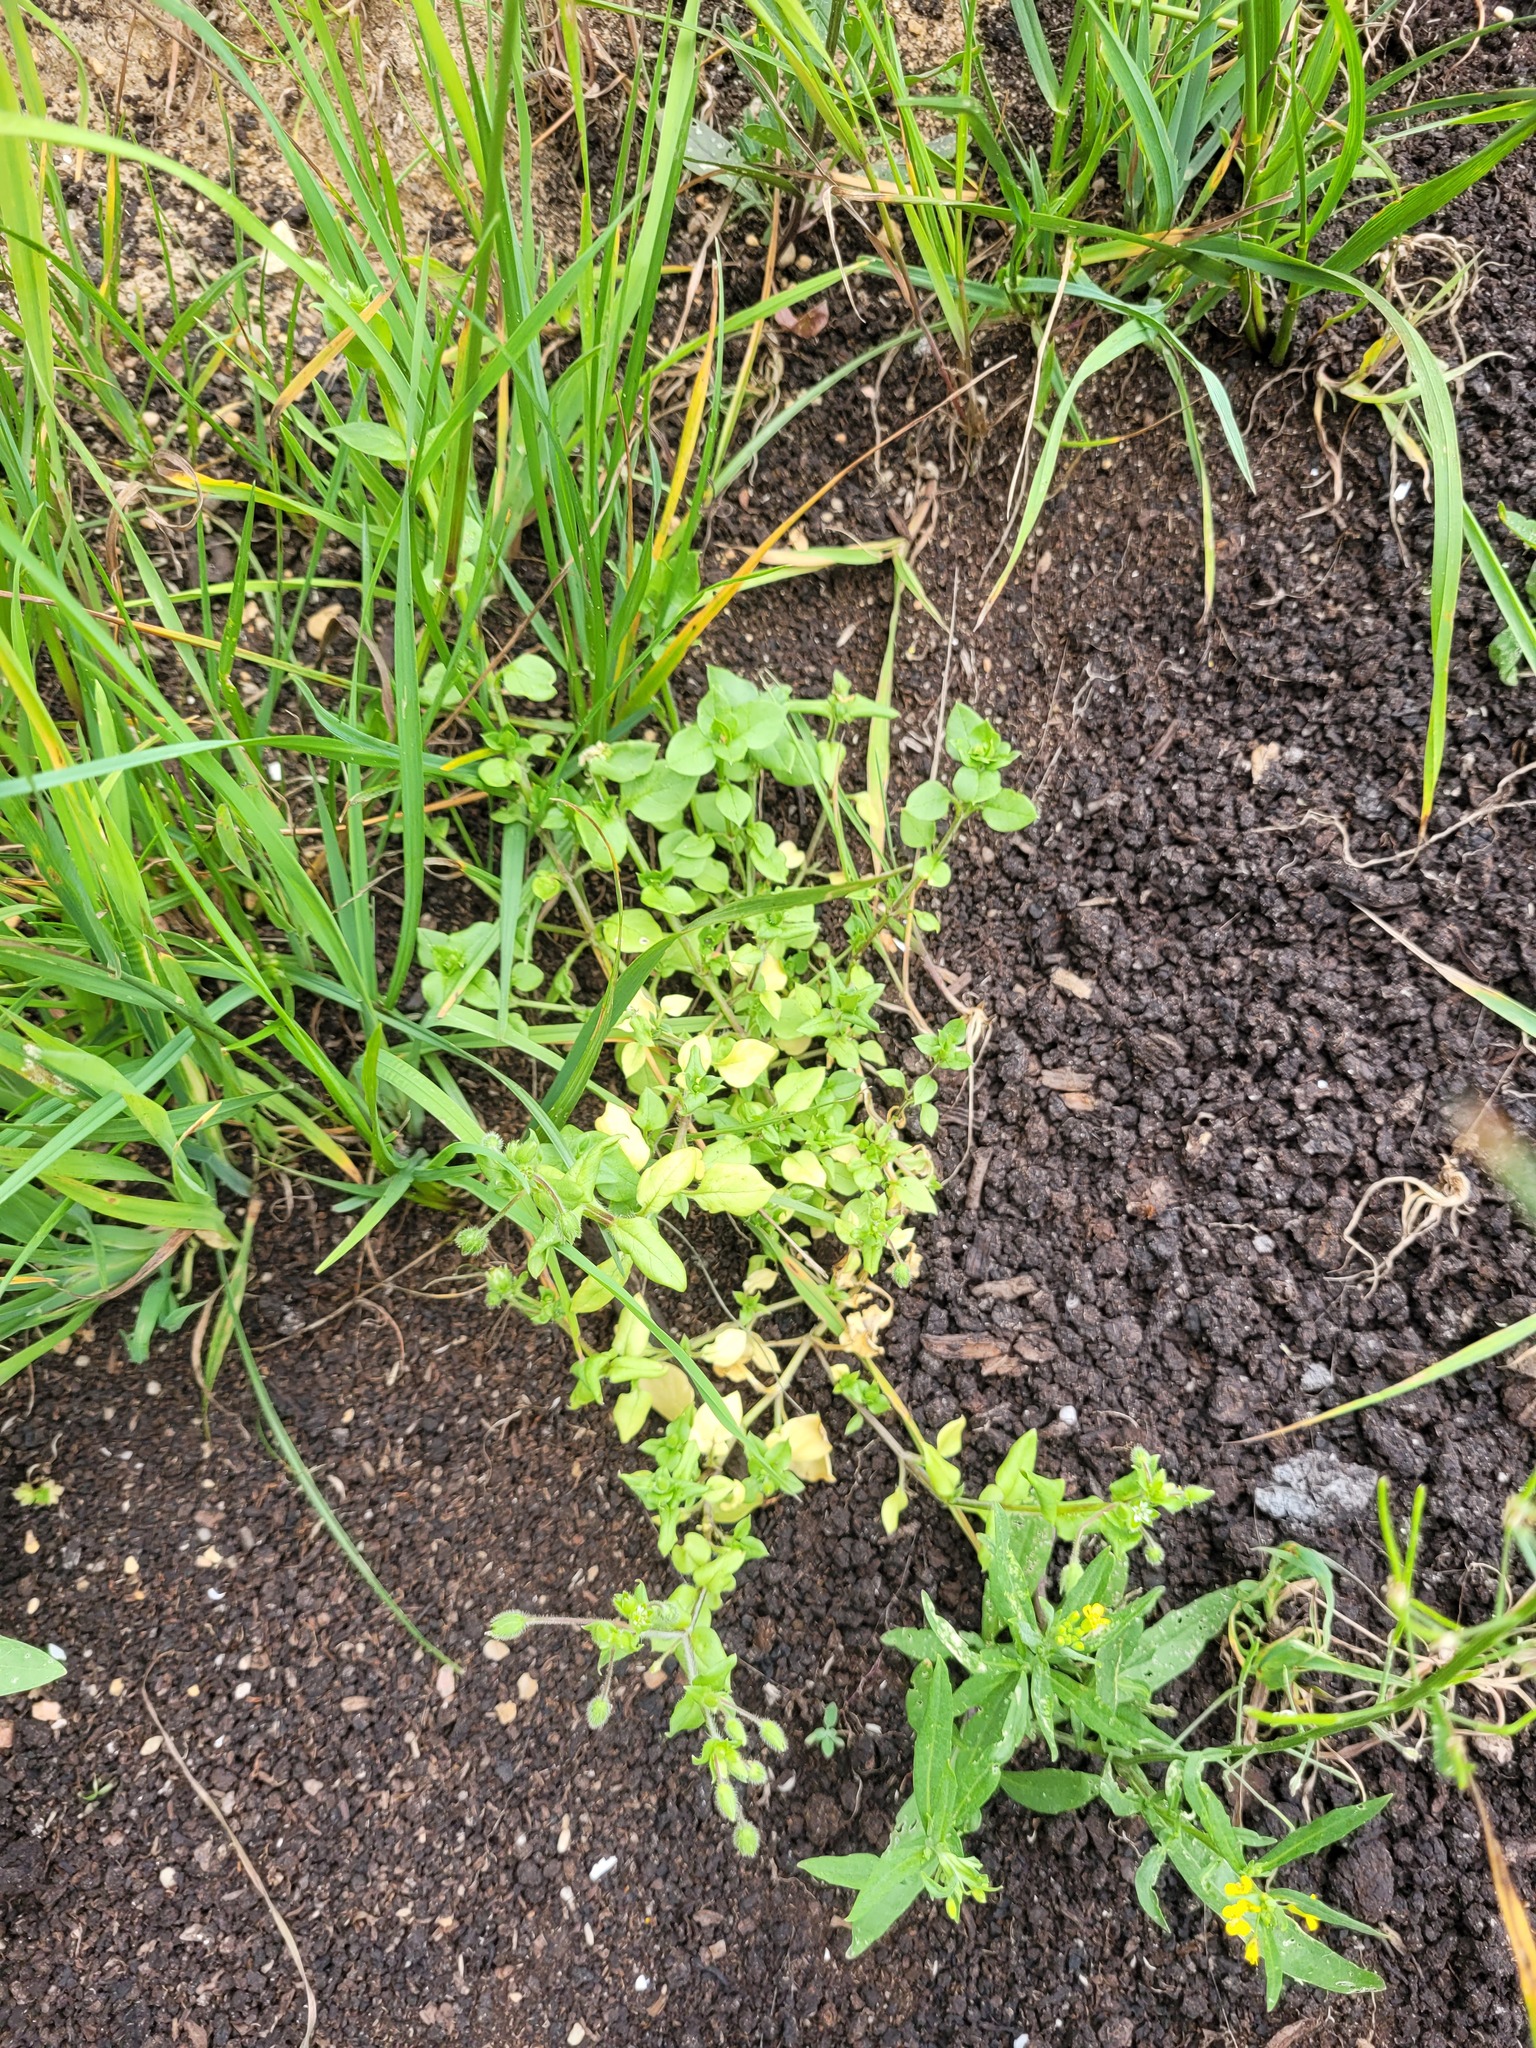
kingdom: Plantae
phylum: Tracheophyta
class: Magnoliopsida
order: Caryophyllales
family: Caryophyllaceae
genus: Stellaria
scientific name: Stellaria media
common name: Common chickweed
